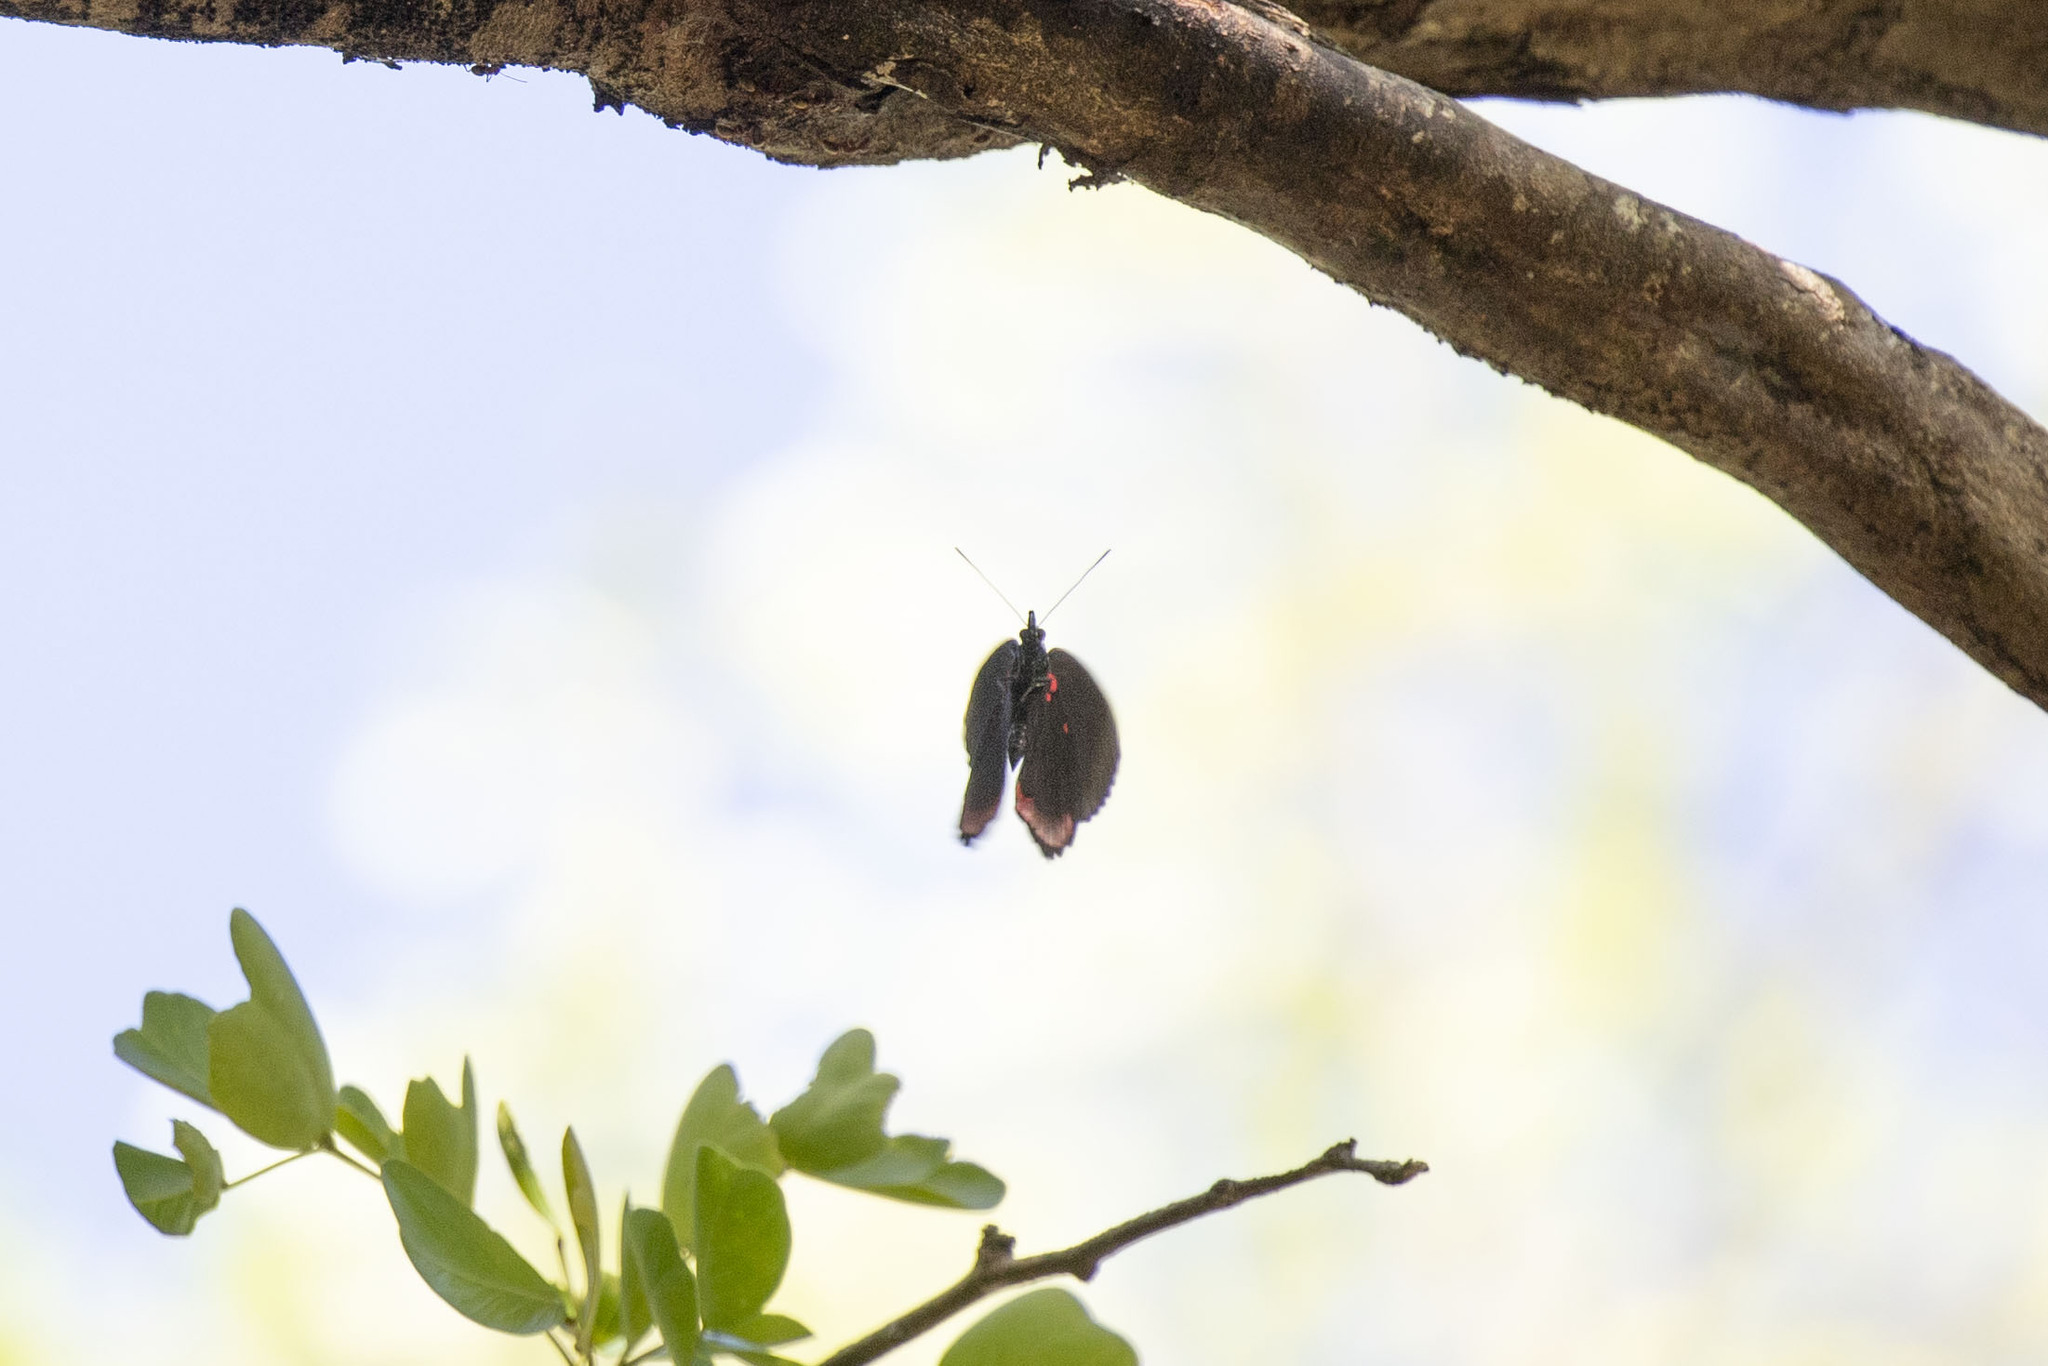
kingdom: Animalia
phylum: Arthropoda
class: Insecta
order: Lepidoptera
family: Sesiidae
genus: Sesia
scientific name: Sesia Biblis hyperia
